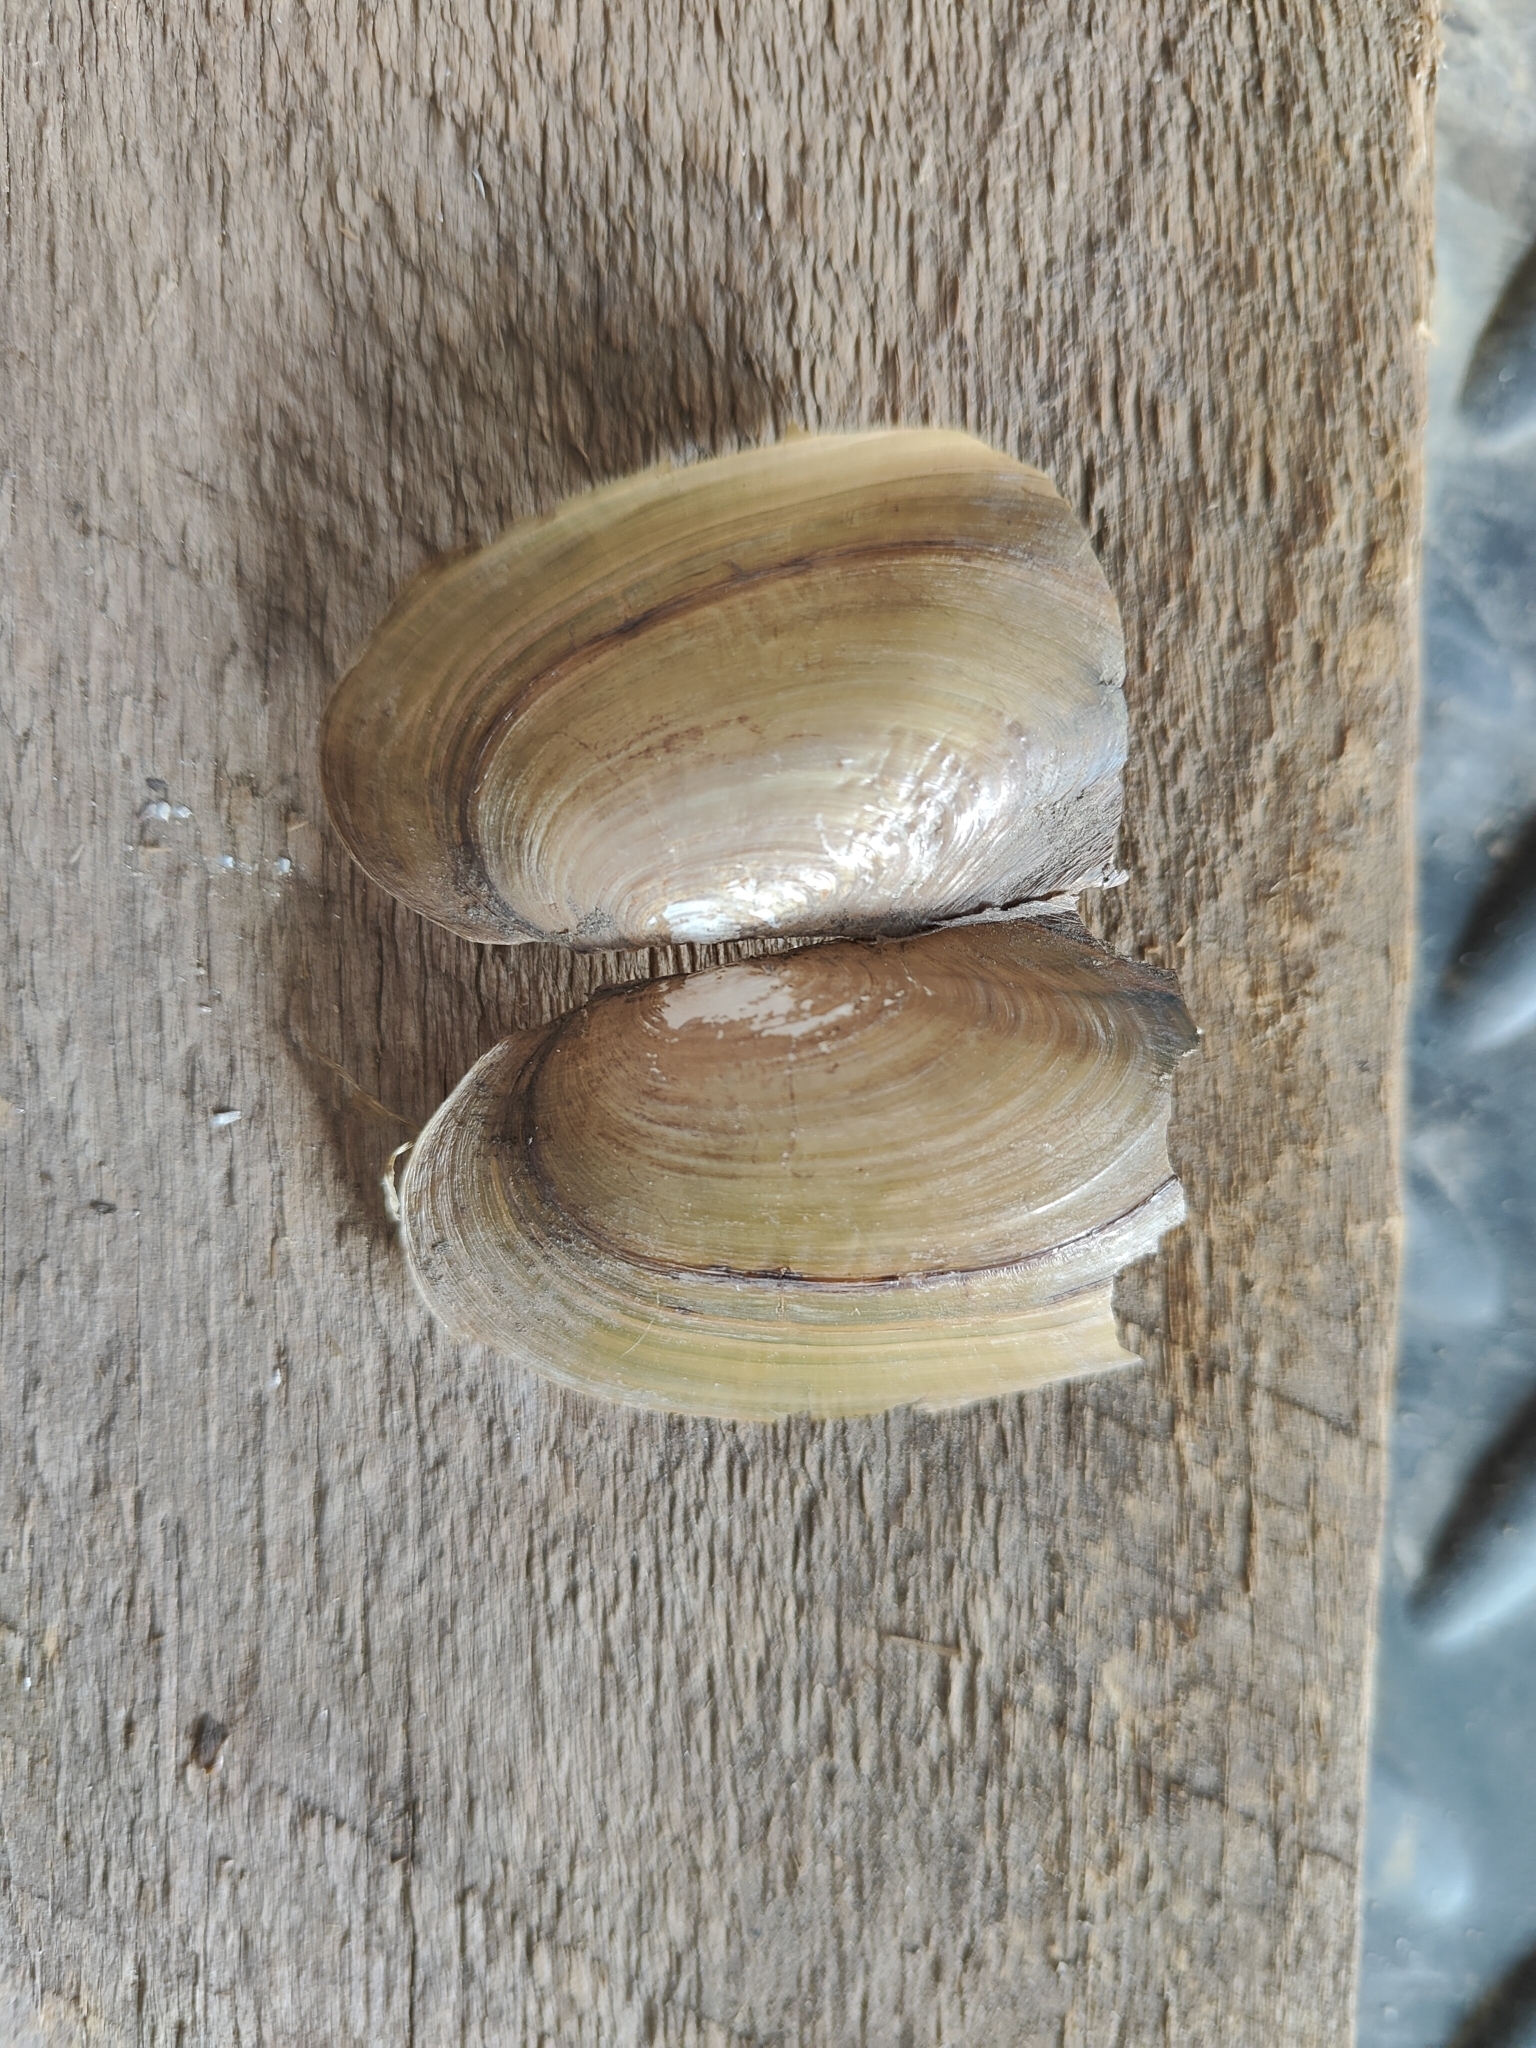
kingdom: Animalia
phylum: Mollusca
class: Bivalvia
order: Unionida
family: Unionidae
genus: Utterbackia
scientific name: Utterbackia imbecillis
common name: Paper pondshell
